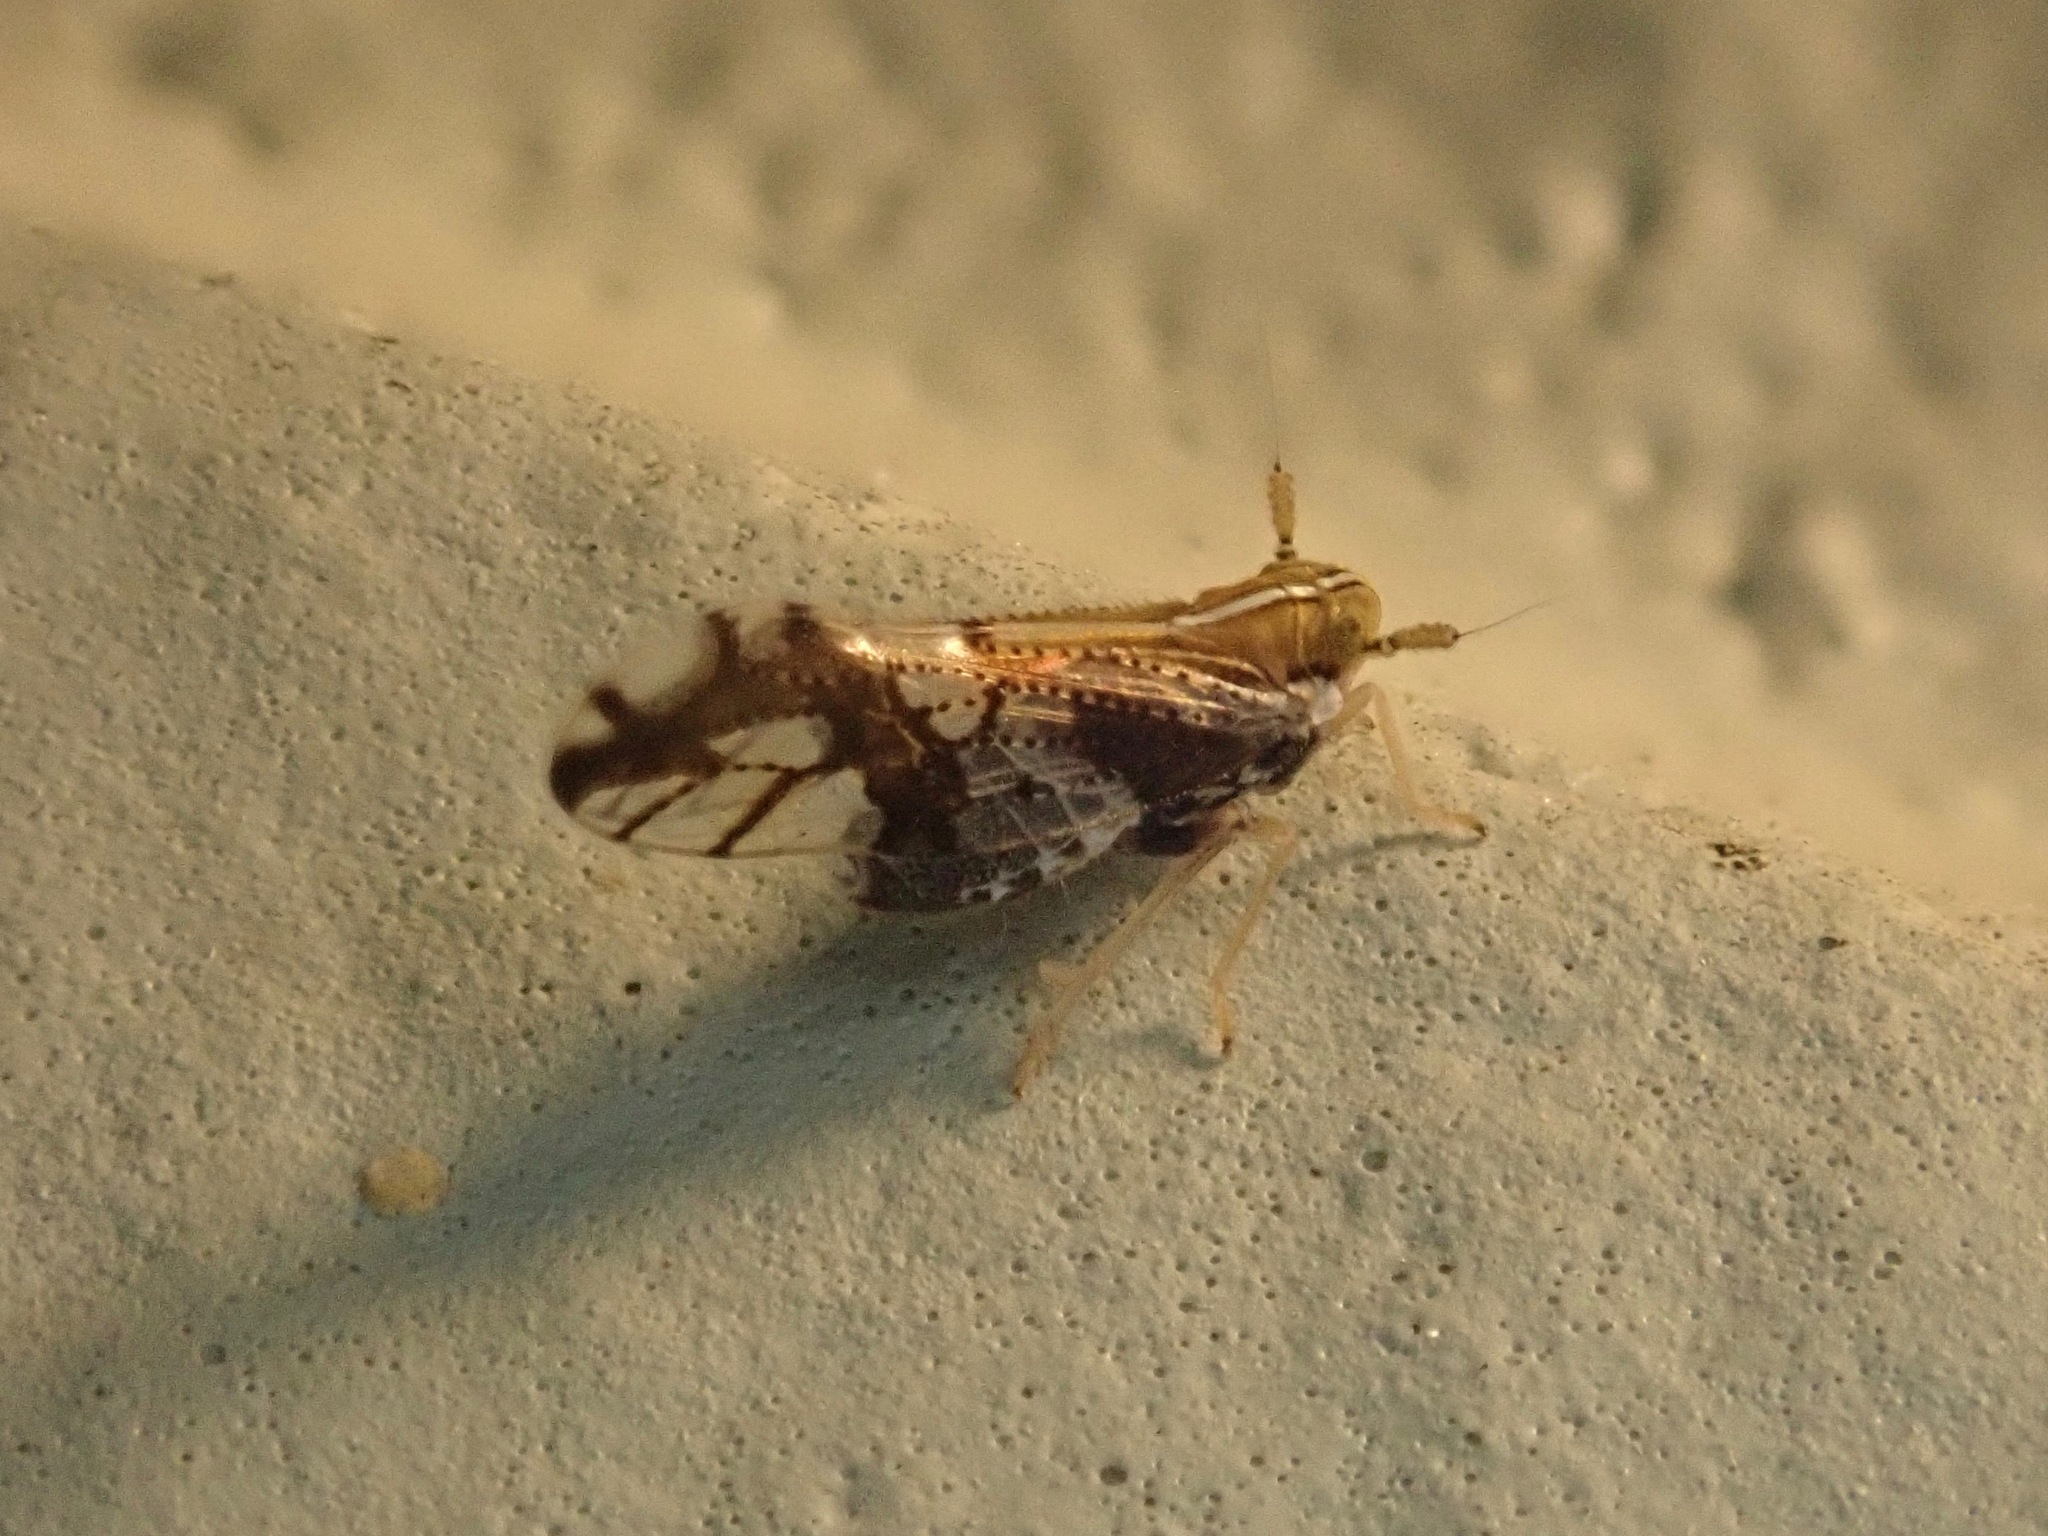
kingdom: Animalia
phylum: Arthropoda
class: Insecta
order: Hemiptera
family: Delphacidae
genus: Liburniella
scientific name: Liburniella ornata
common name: Ornate planthopper
